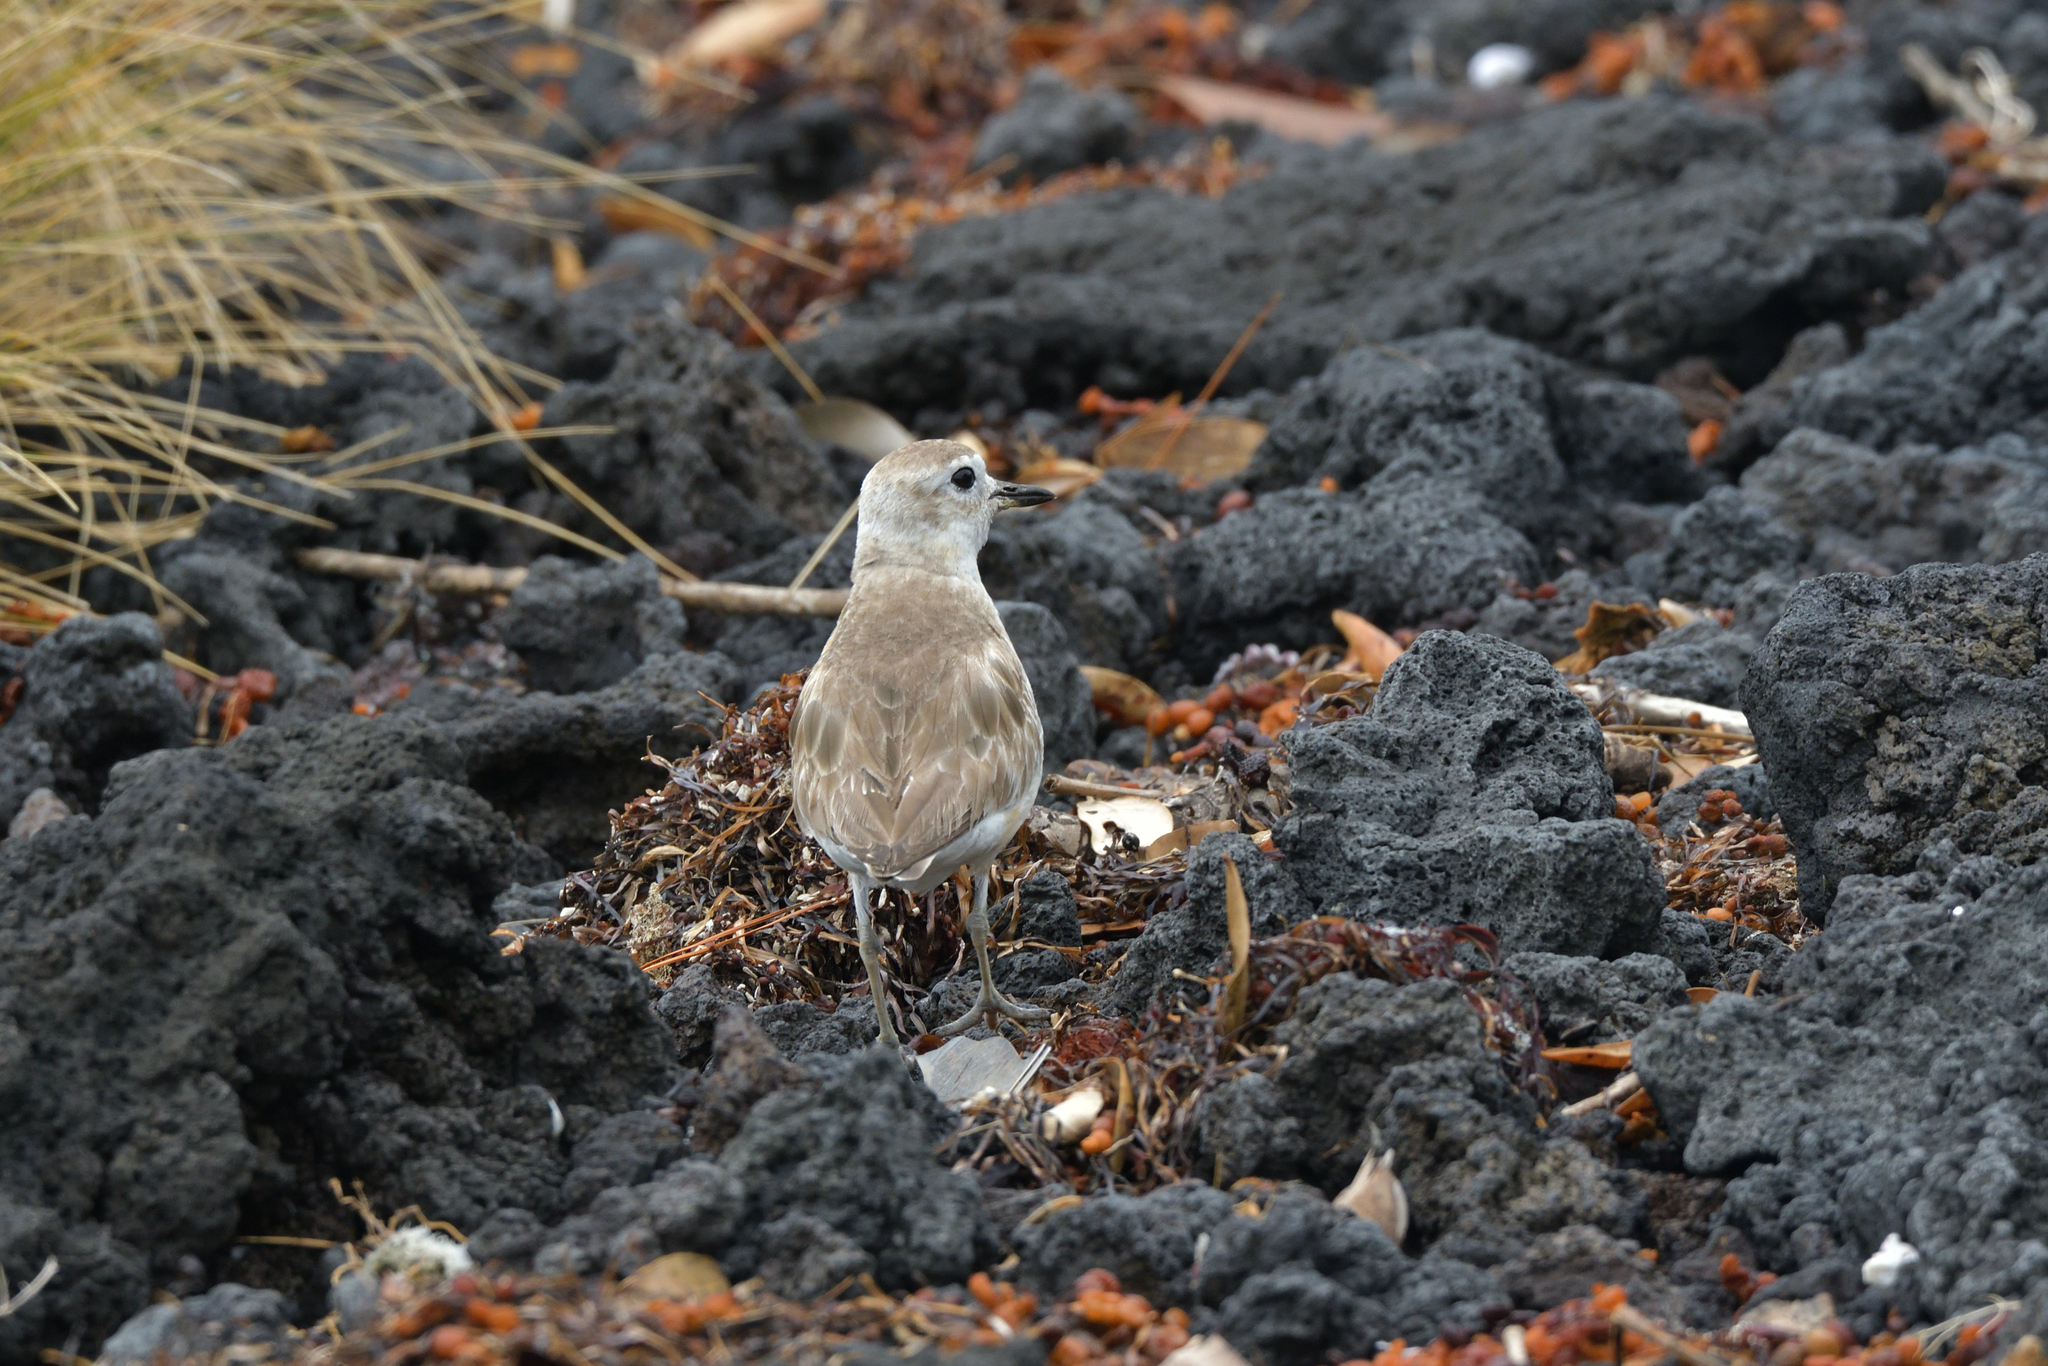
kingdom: Animalia
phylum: Chordata
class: Aves
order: Charadriiformes
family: Charadriidae
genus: Anarhynchus
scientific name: Anarhynchus
